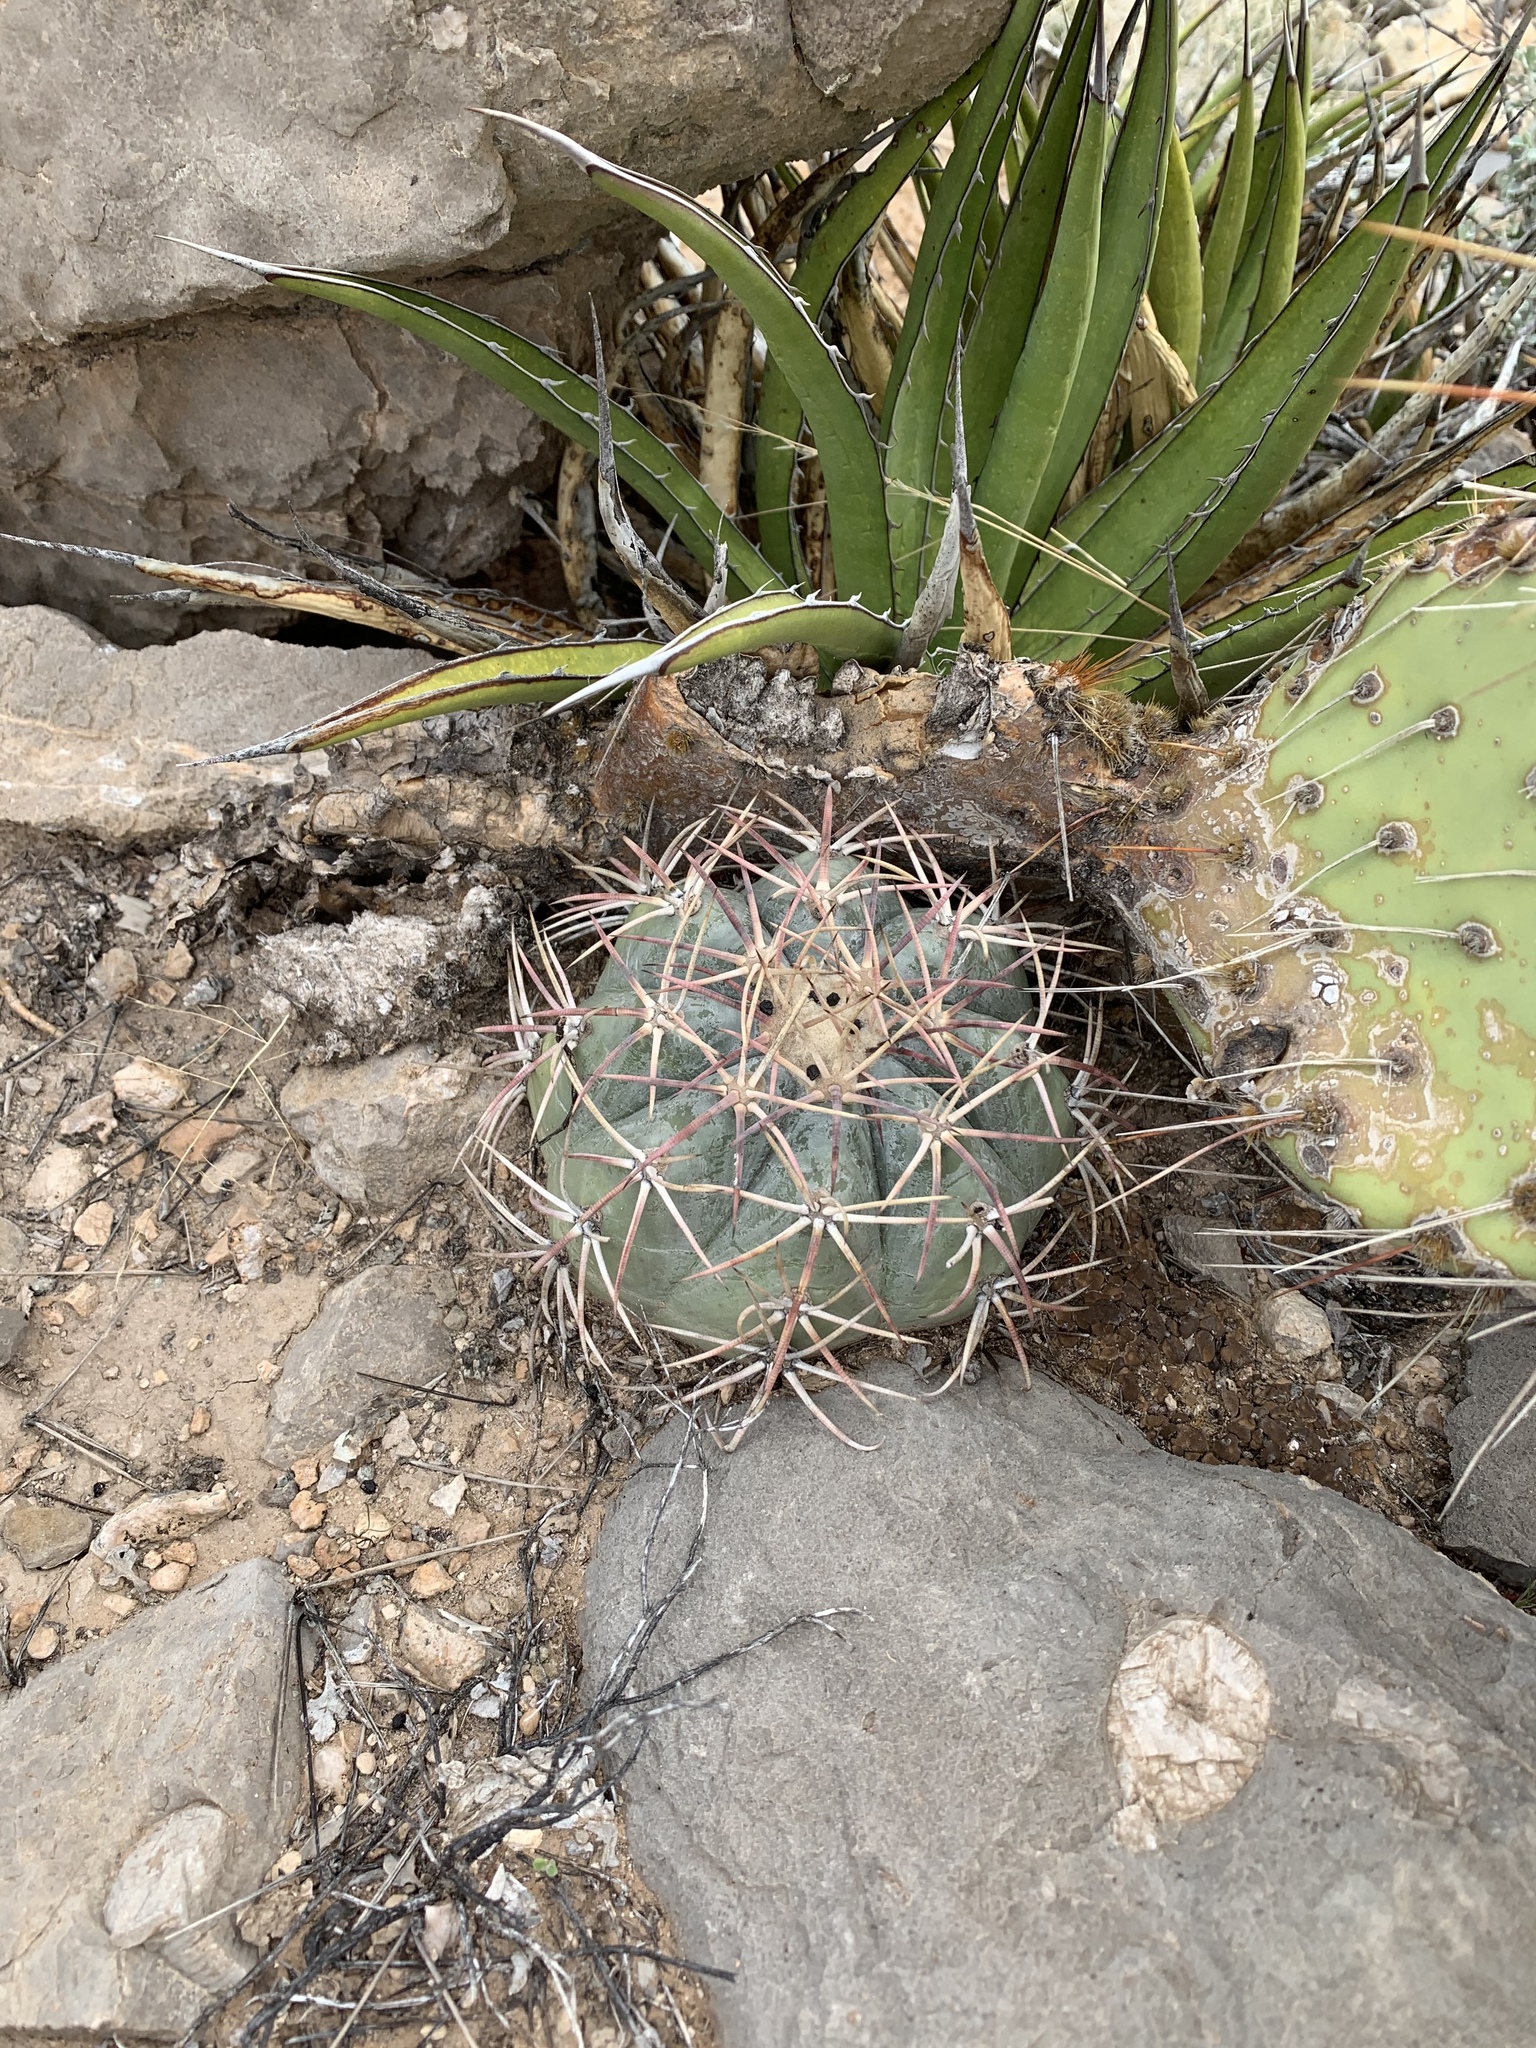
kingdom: Plantae
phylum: Tracheophyta
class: Magnoliopsida
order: Caryophyllales
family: Cactaceae
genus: Echinocactus
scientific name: Echinocactus horizonthalonius
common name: Devilshead
